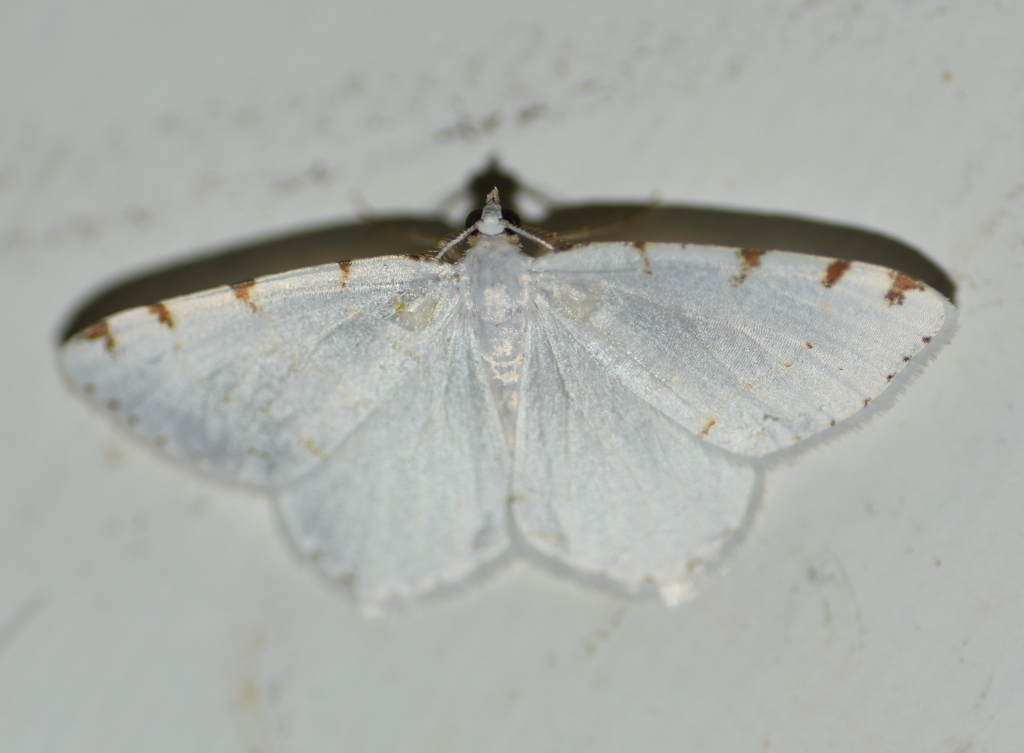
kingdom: Animalia
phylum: Arthropoda
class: Insecta
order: Lepidoptera
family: Geometridae
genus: Macaria
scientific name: Macaria pustularia
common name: Lesser maple spanworm moth
